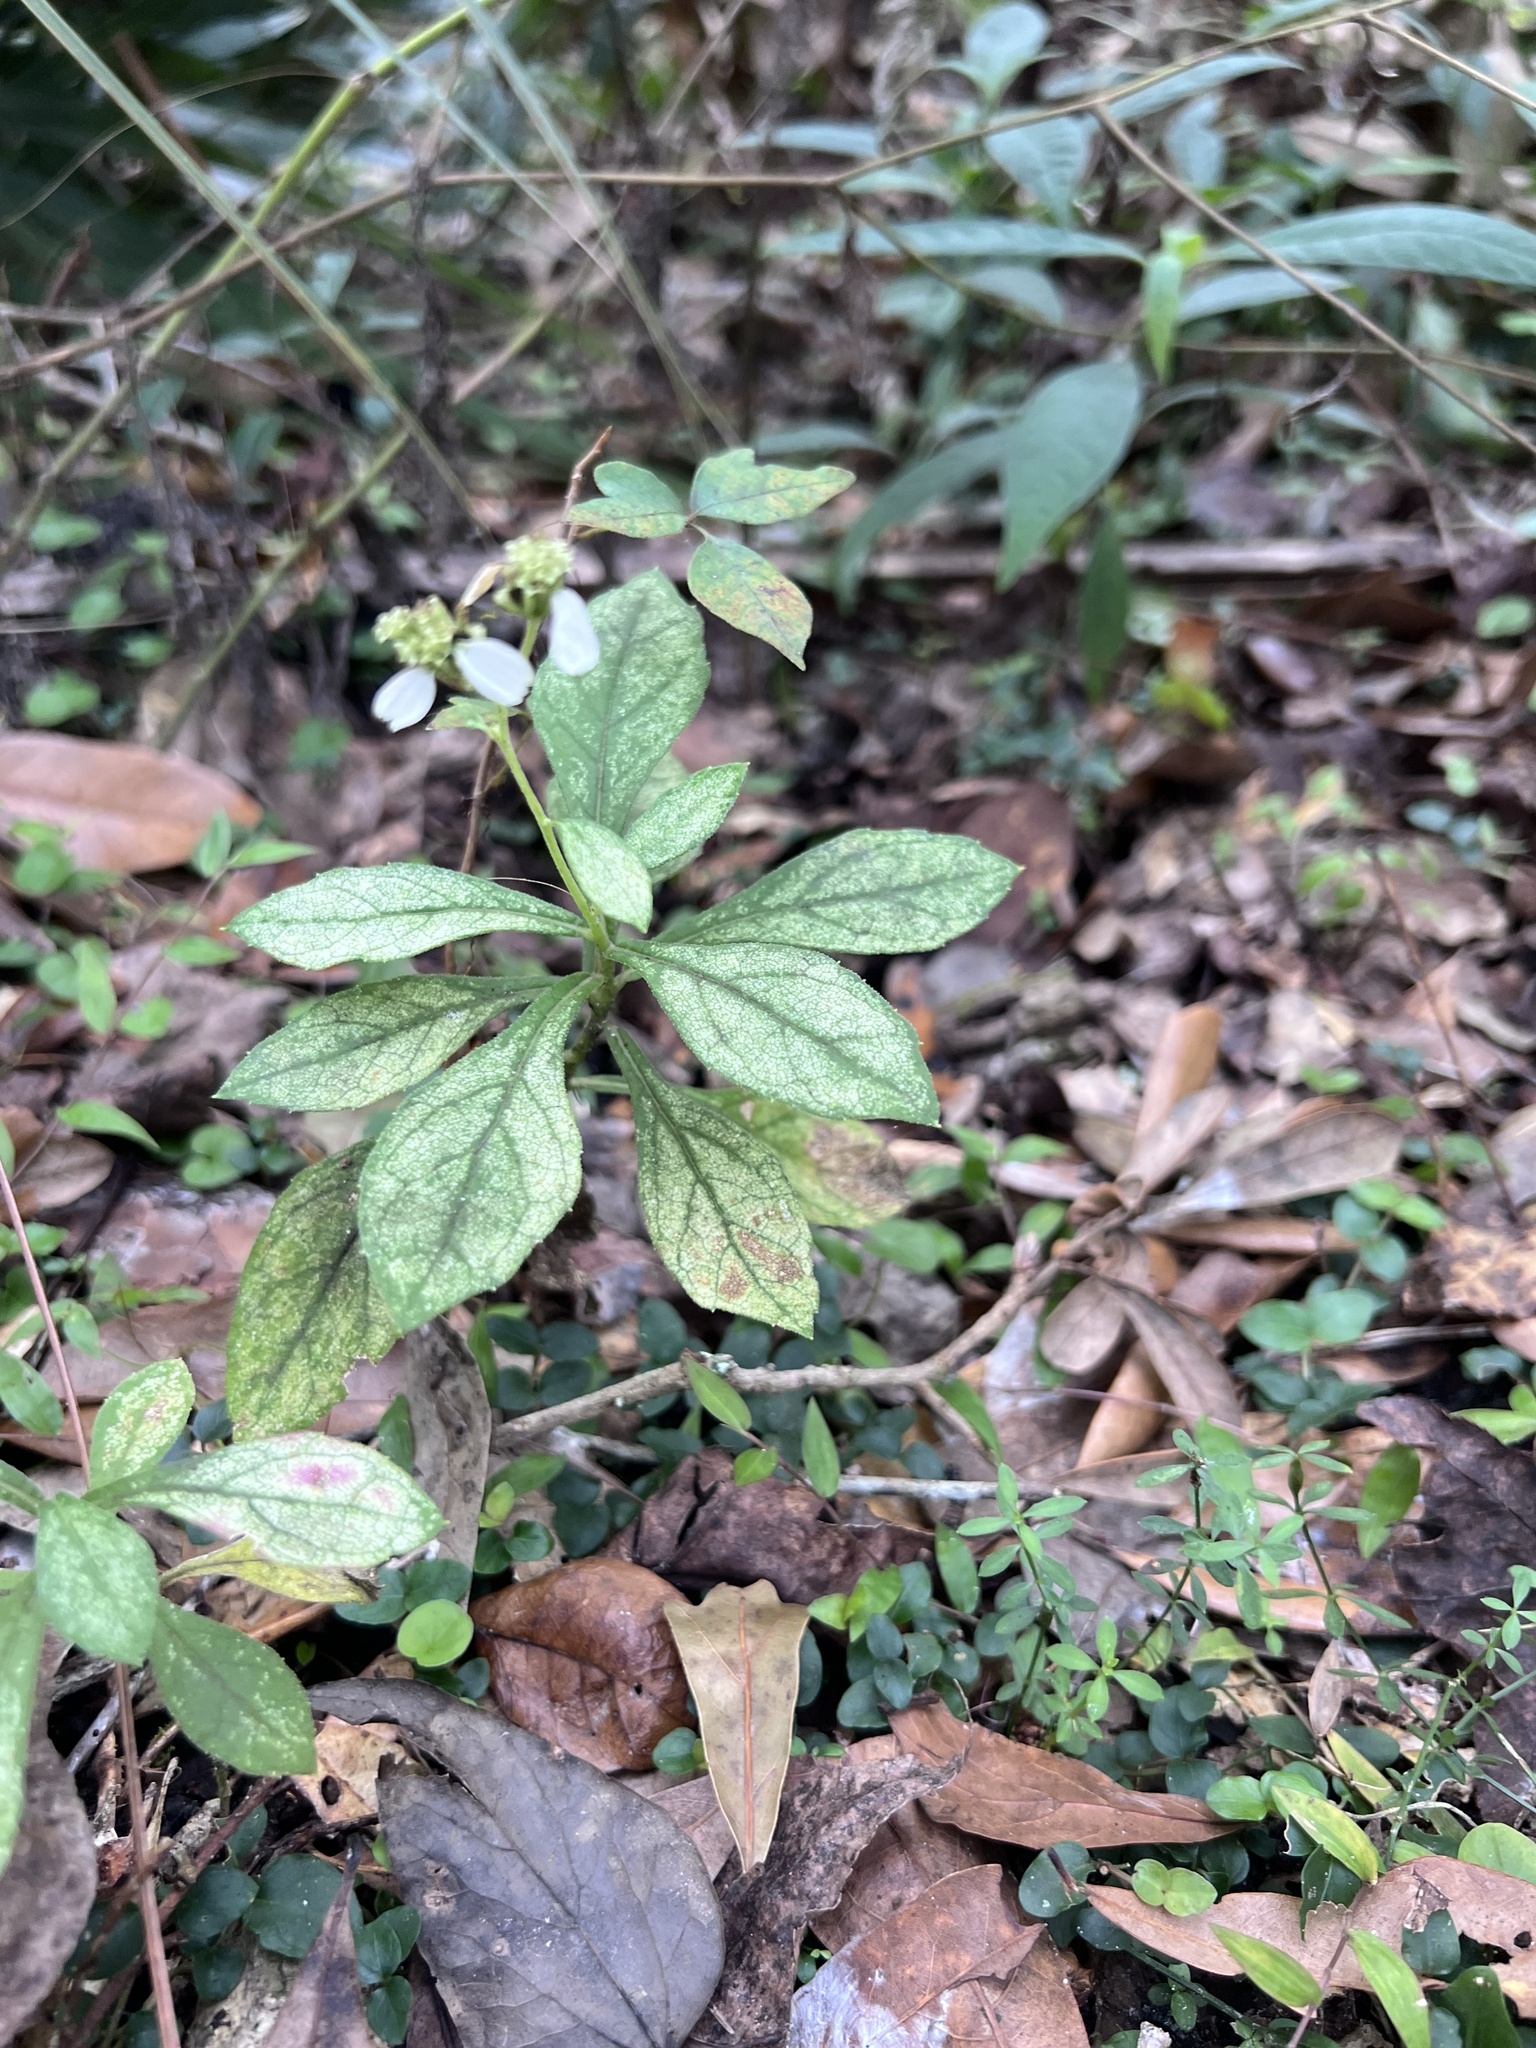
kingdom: Plantae
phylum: Tracheophyta
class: Magnoliopsida
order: Asterales
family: Asteraceae
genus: Verbesina
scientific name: Verbesina virginica
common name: Frostweed
